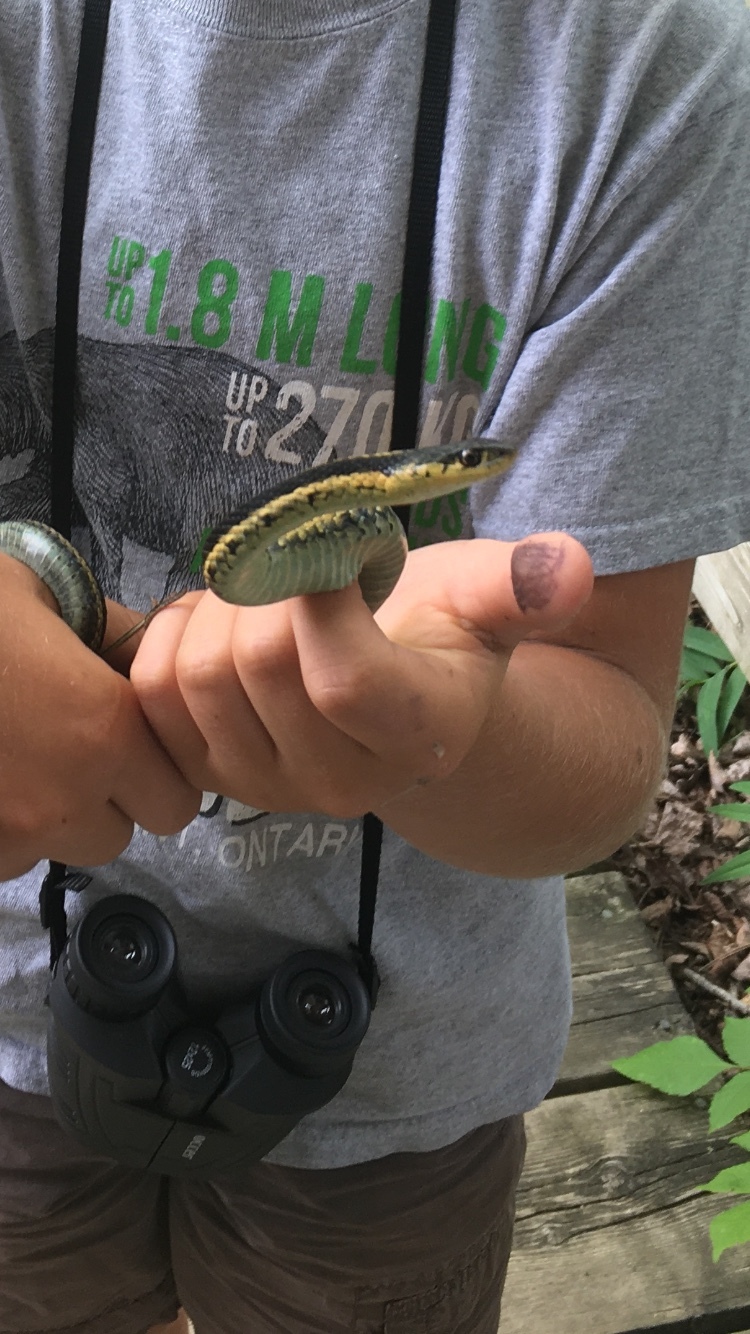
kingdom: Animalia
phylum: Chordata
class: Squamata
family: Colubridae
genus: Thamnophis
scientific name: Thamnophis sirtalis
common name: Common garter snake
